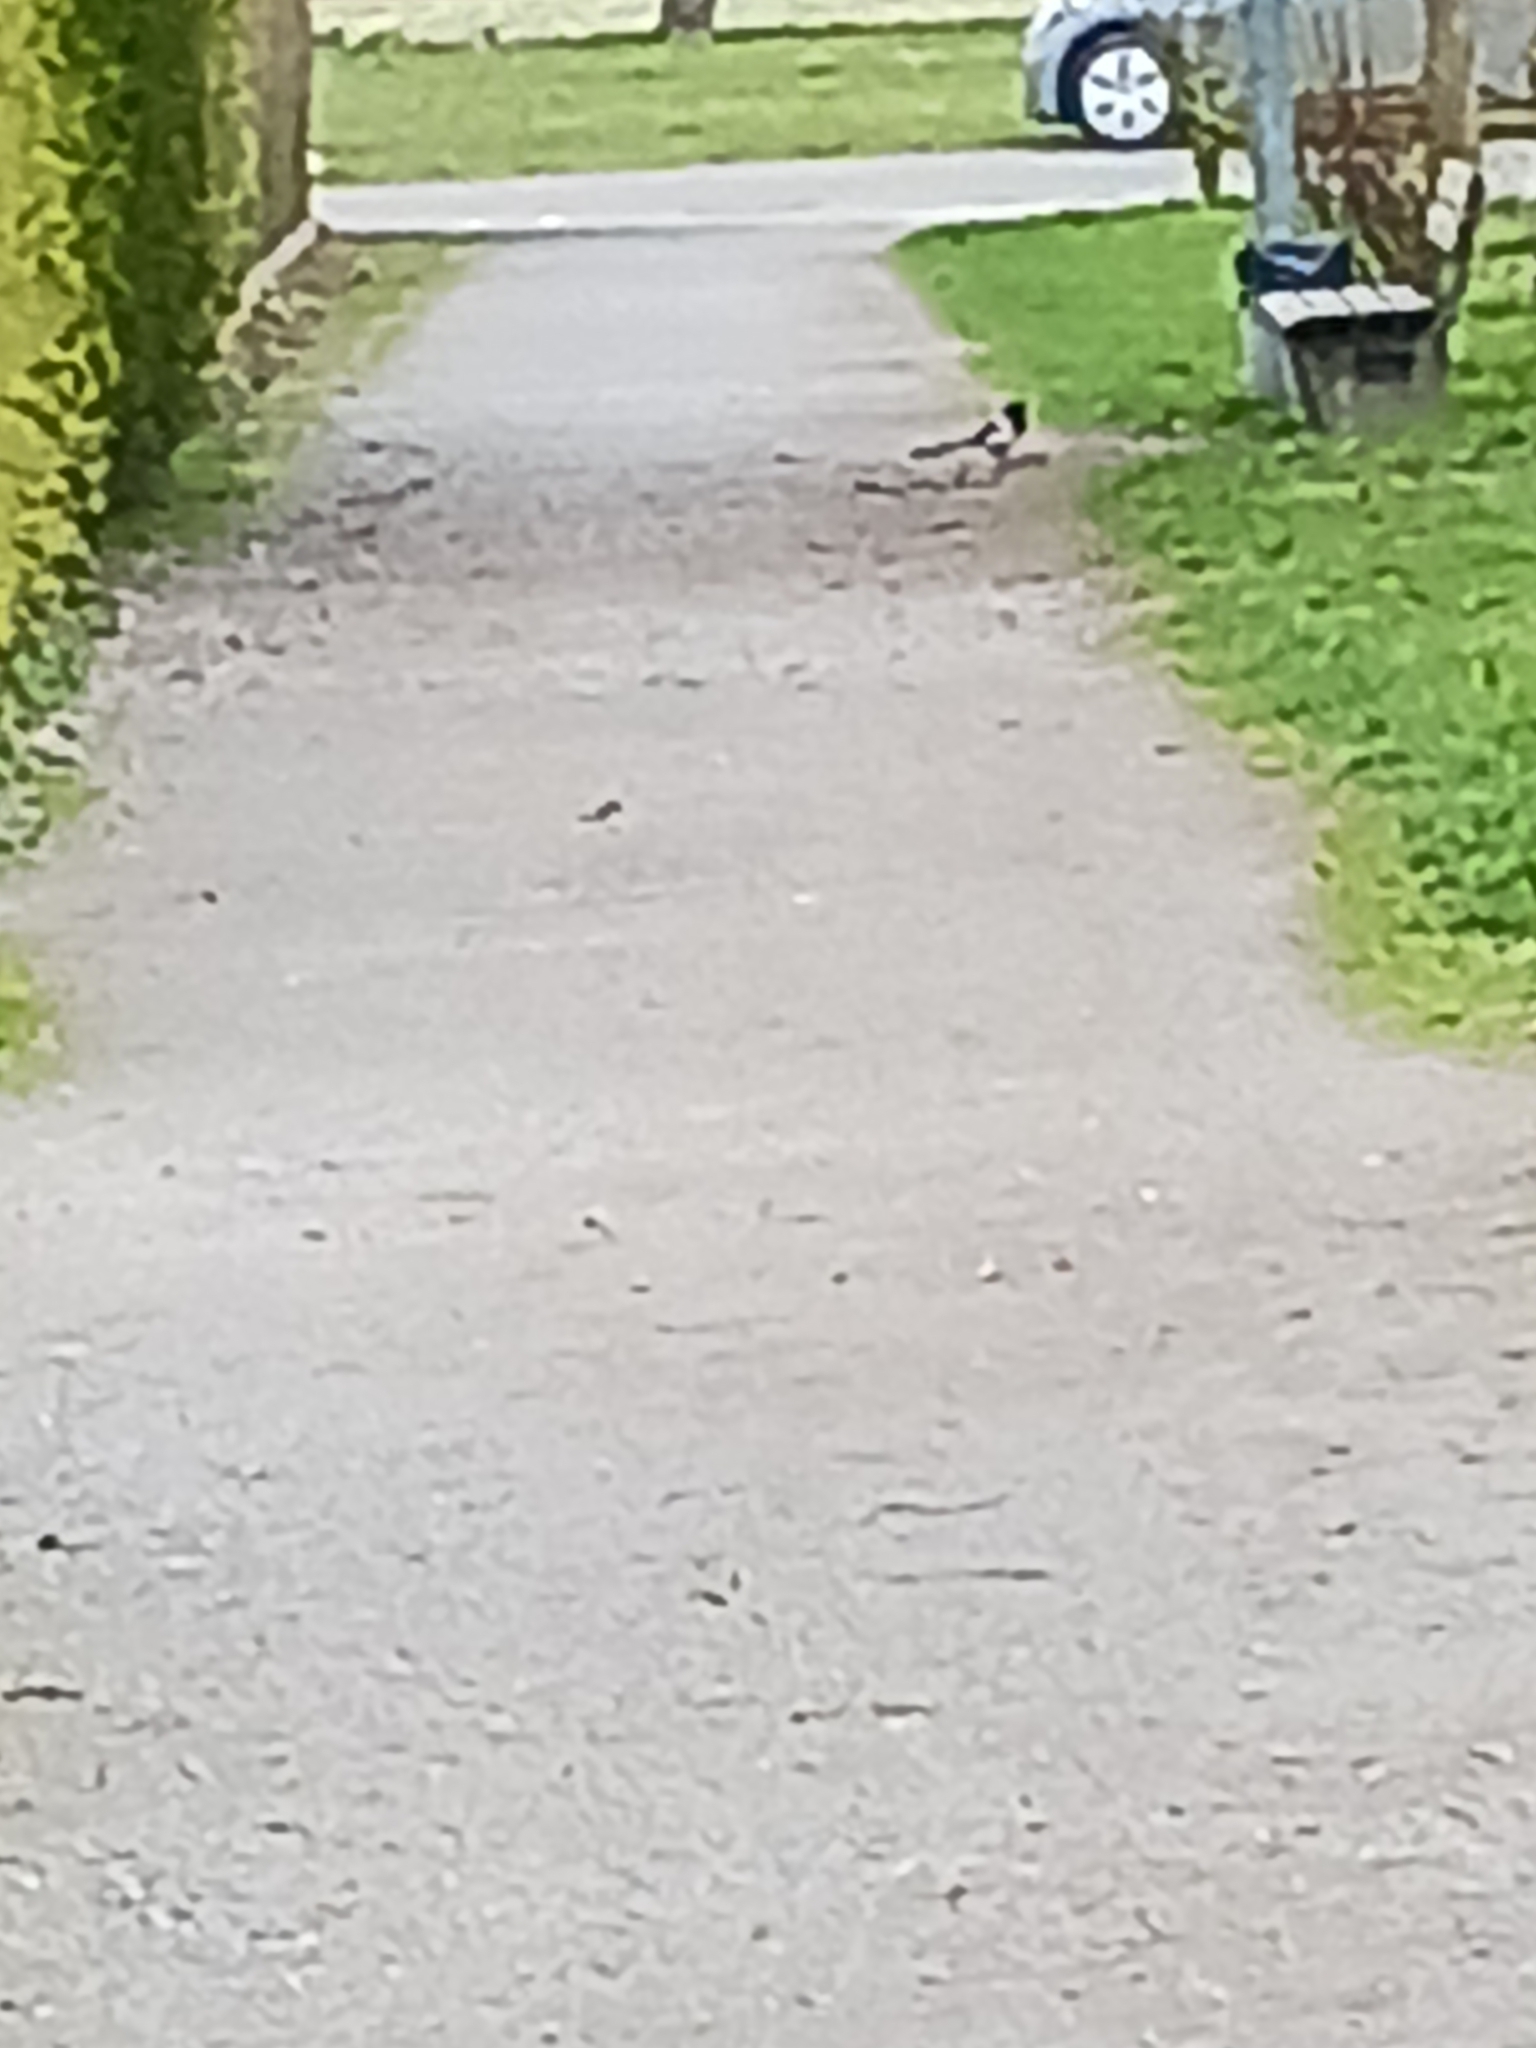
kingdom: Animalia
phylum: Chordata
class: Aves
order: Passeriformes
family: Corvidae
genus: Pica
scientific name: Pica pica
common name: Eurasian magpie
